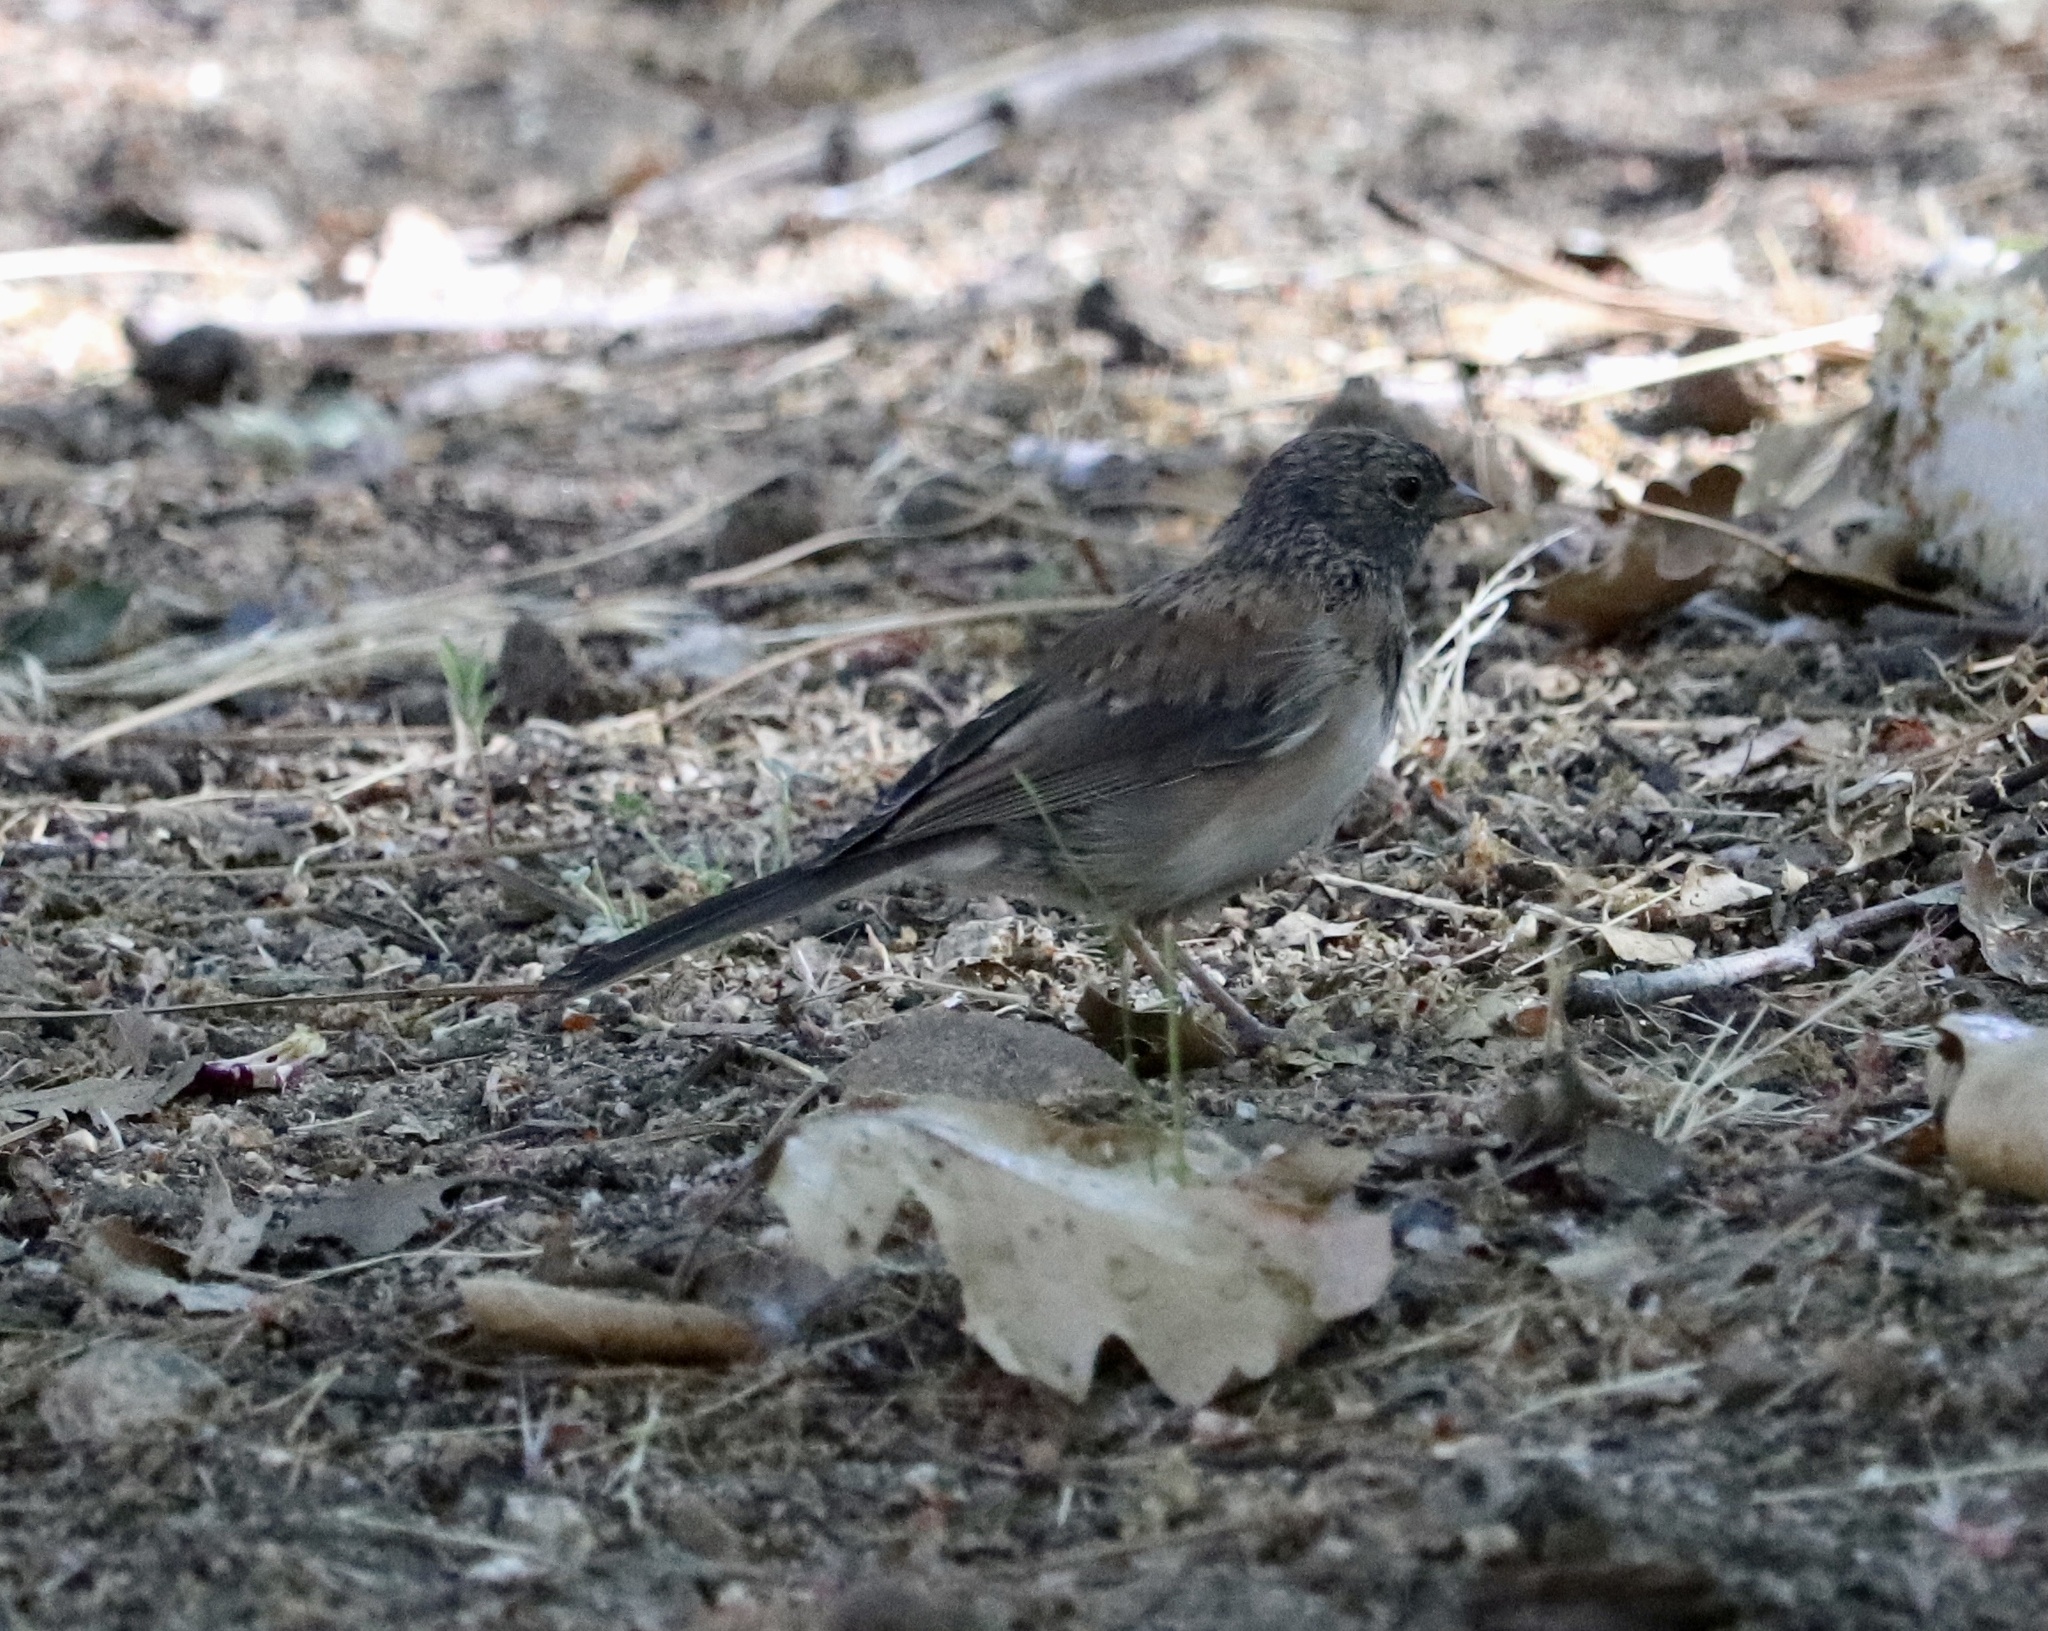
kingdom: Animalia
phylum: Chordata
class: Aves
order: Passeriformes
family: Passerellidae
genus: Junco
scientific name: Junco hyemalis
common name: Dark-eyed junco
